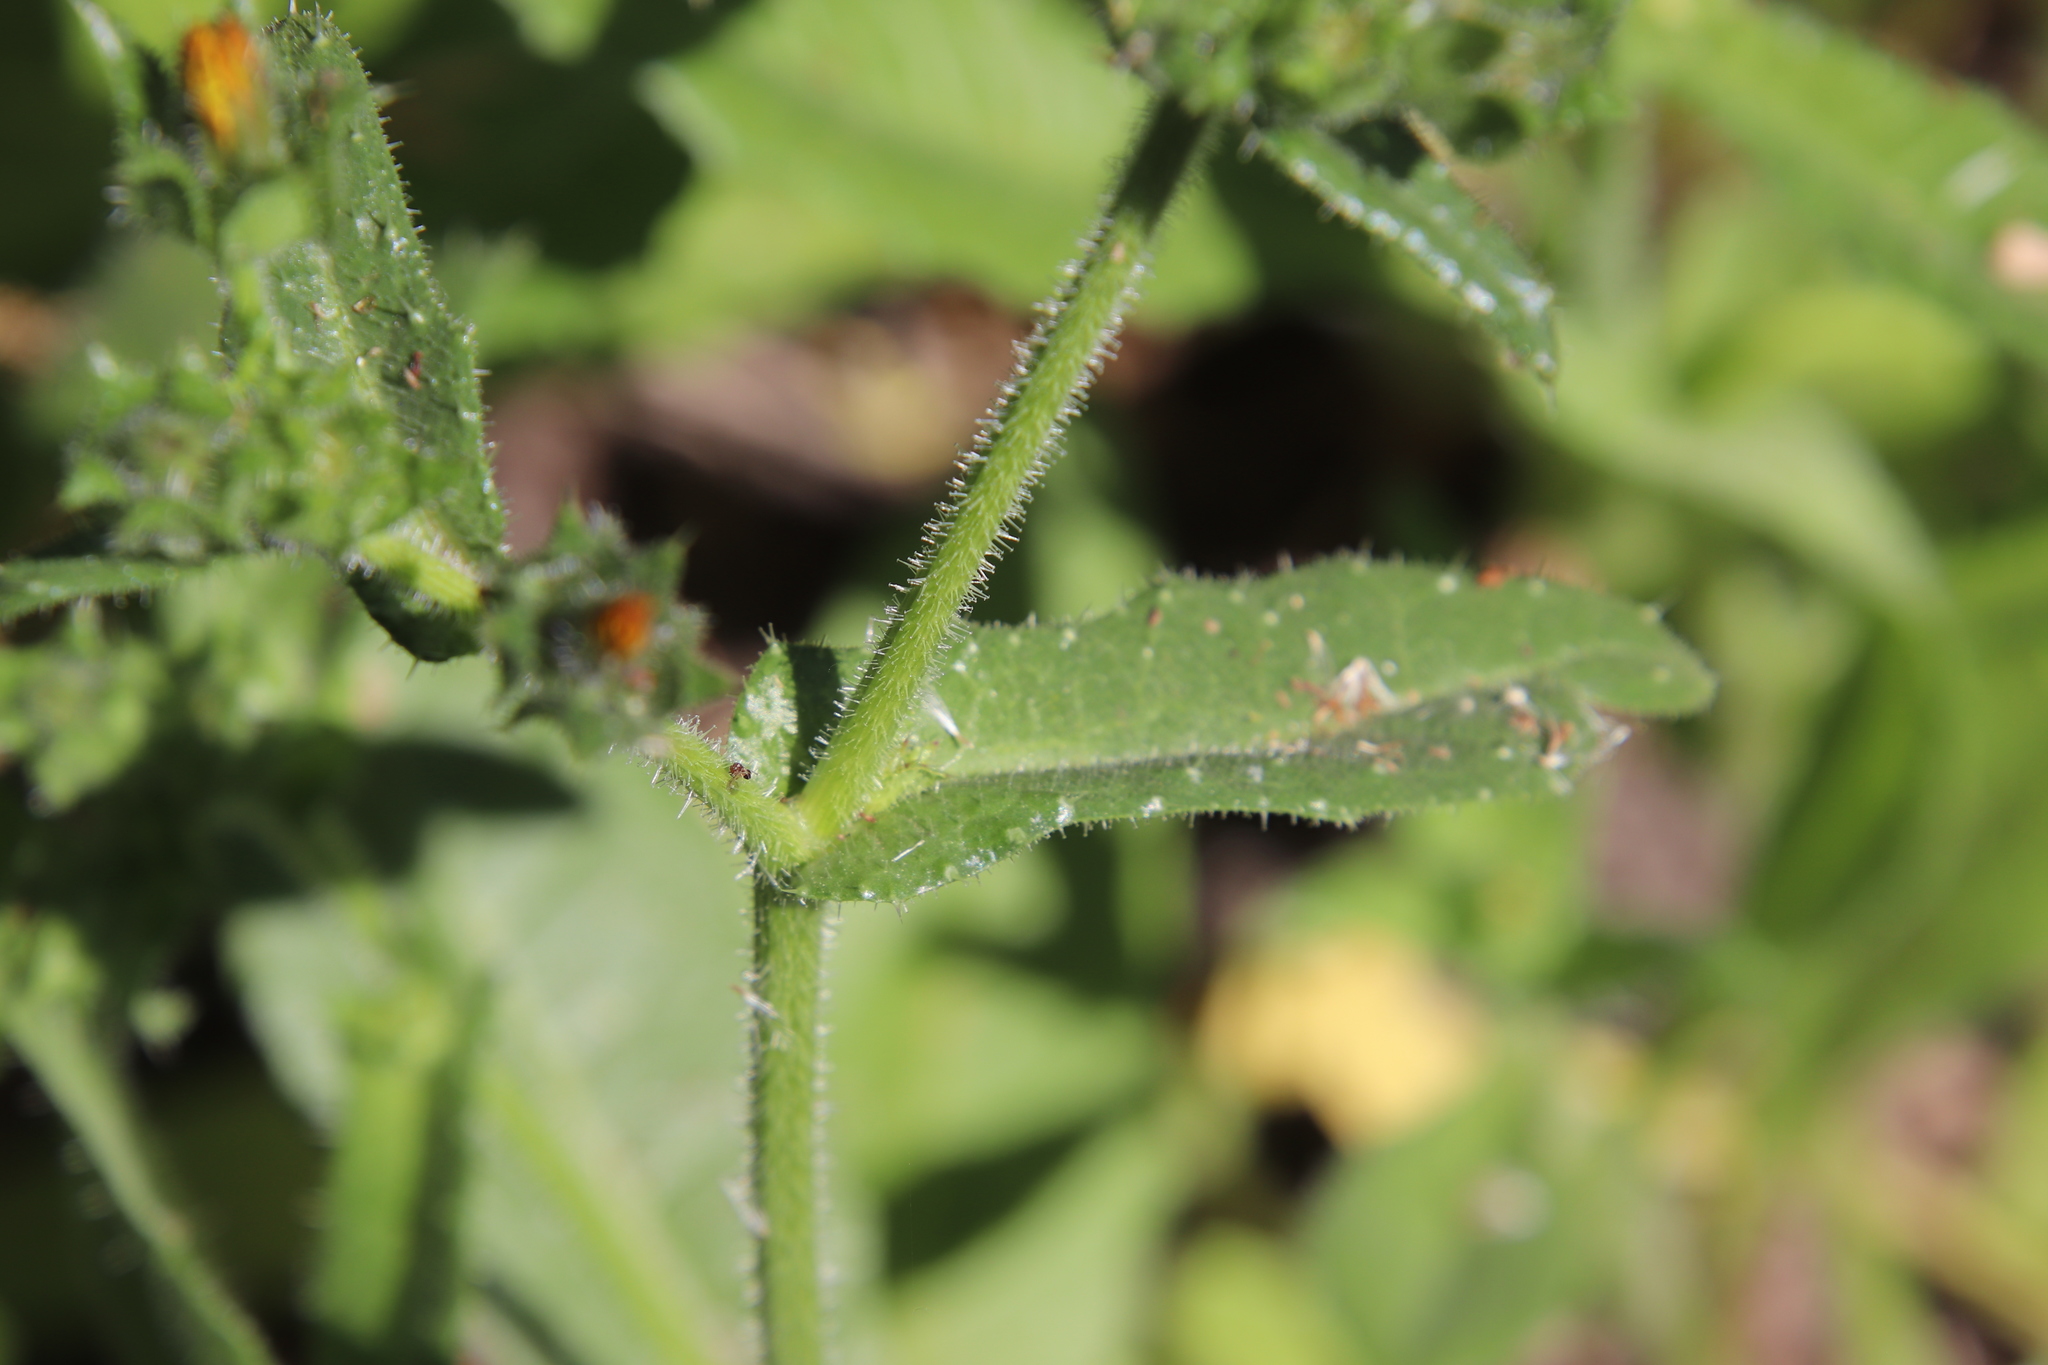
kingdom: Plantae
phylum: Tracheophyta
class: Magnoliopsida
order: Asterales
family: Asteraceae
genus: Helminthotheca
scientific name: Helminthotheca echioides
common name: Ox-tongue
